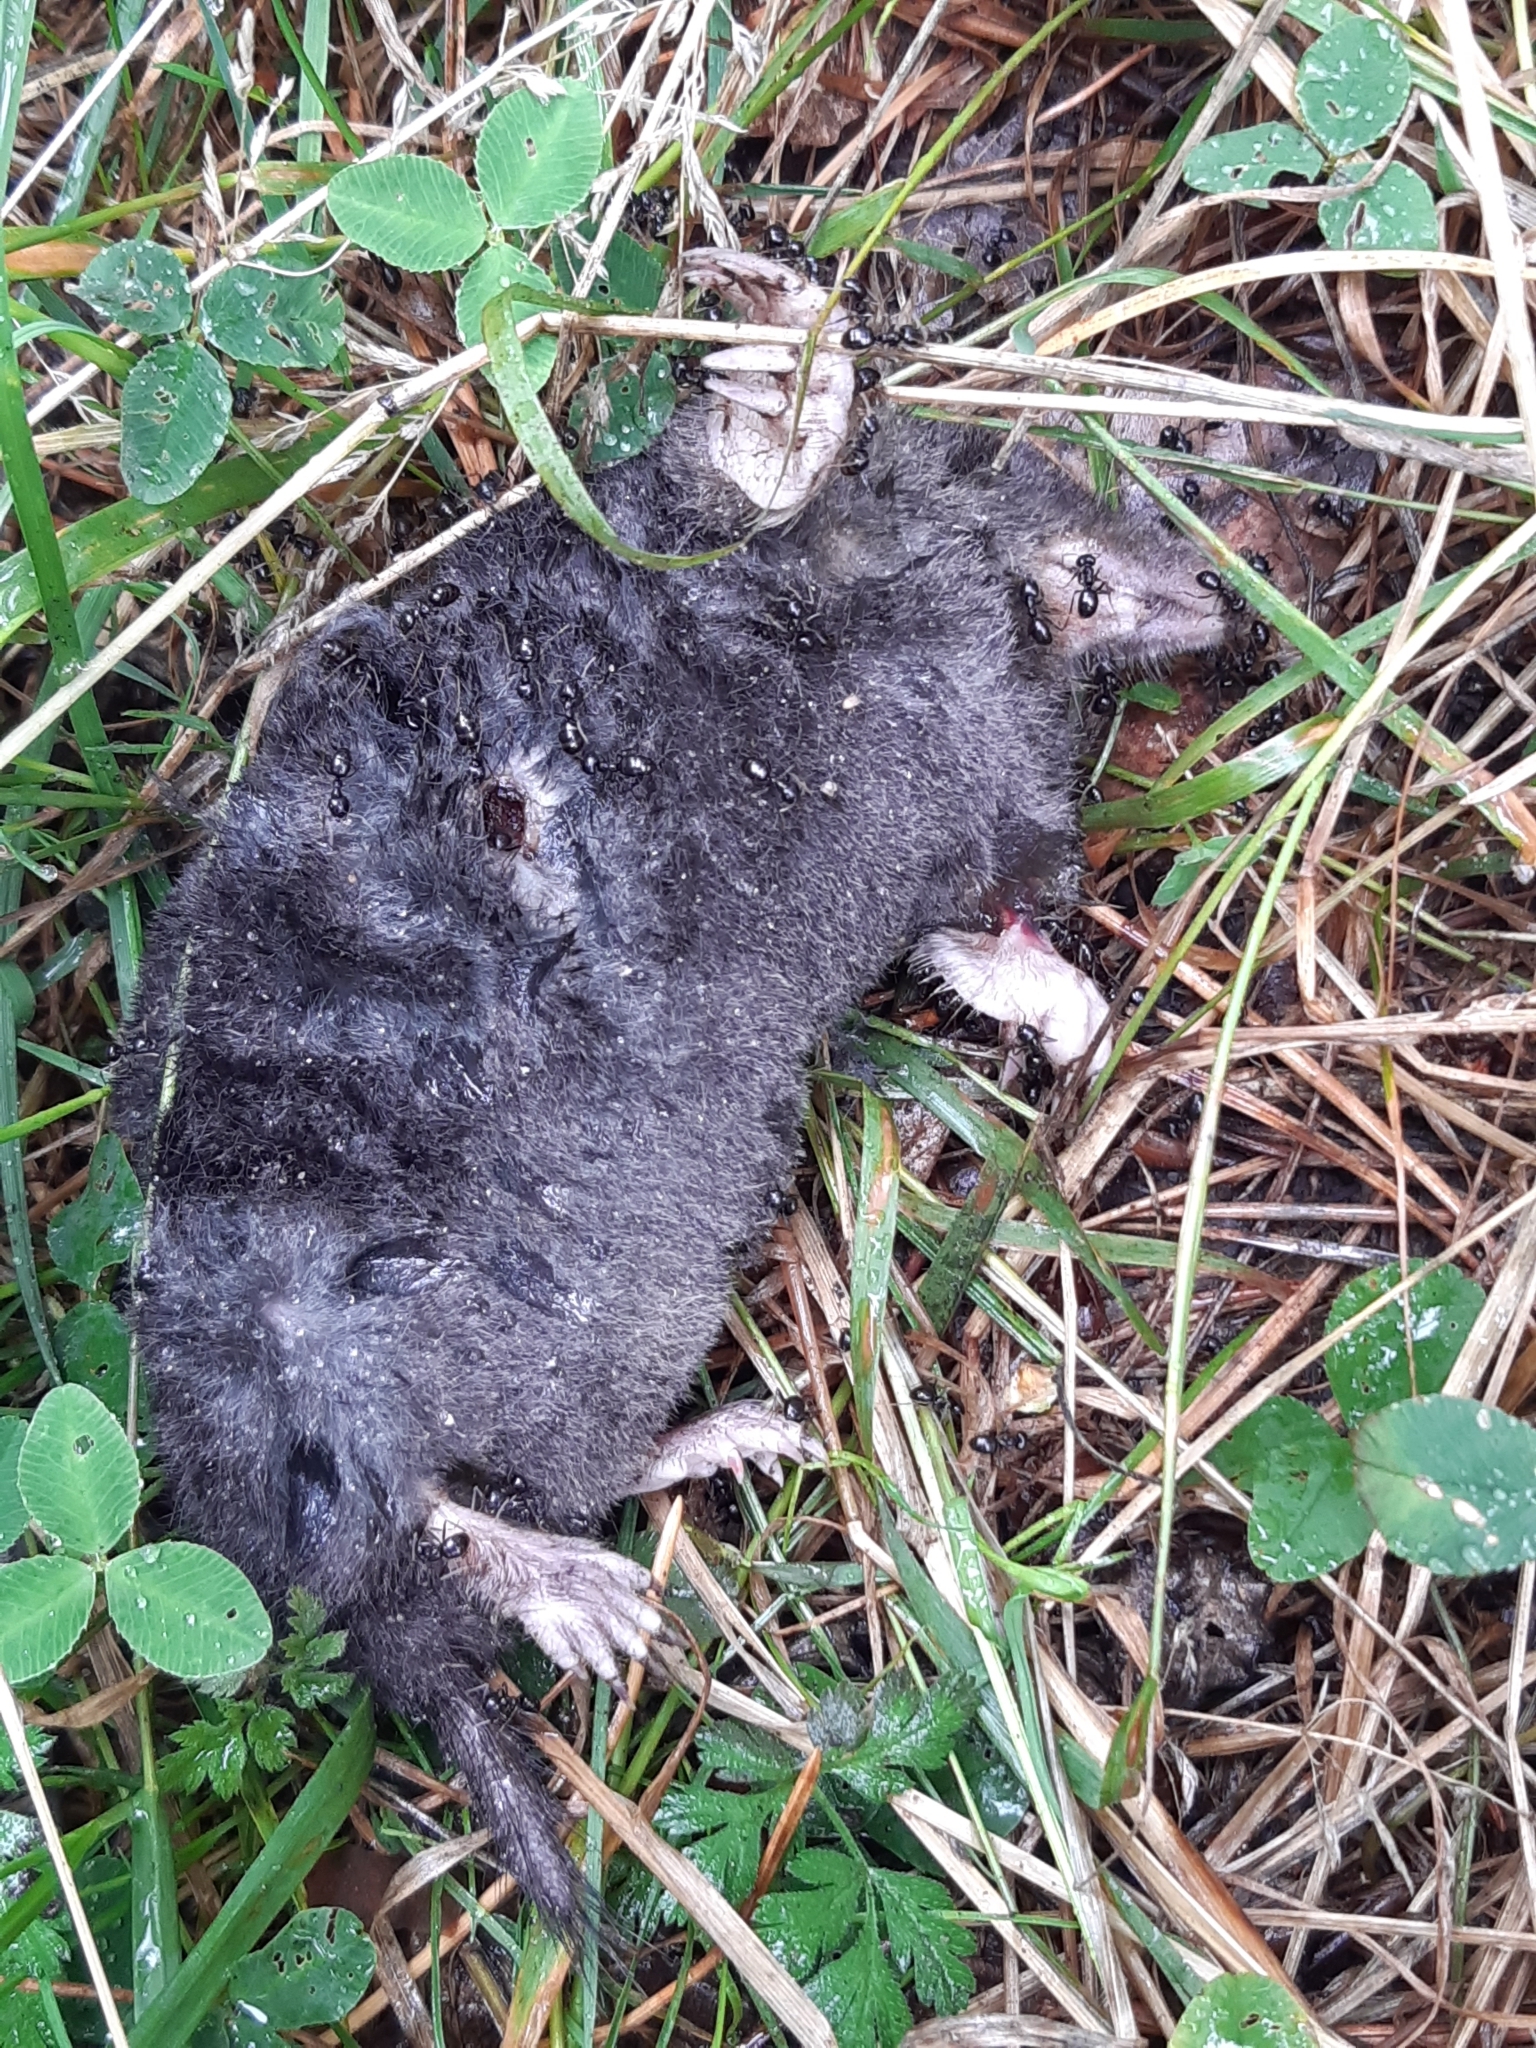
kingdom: Animalia
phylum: Chordata
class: Mammalia
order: Soricomorpha
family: Talpidae
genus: Talpa
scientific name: Talpa europaea
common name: European mole
